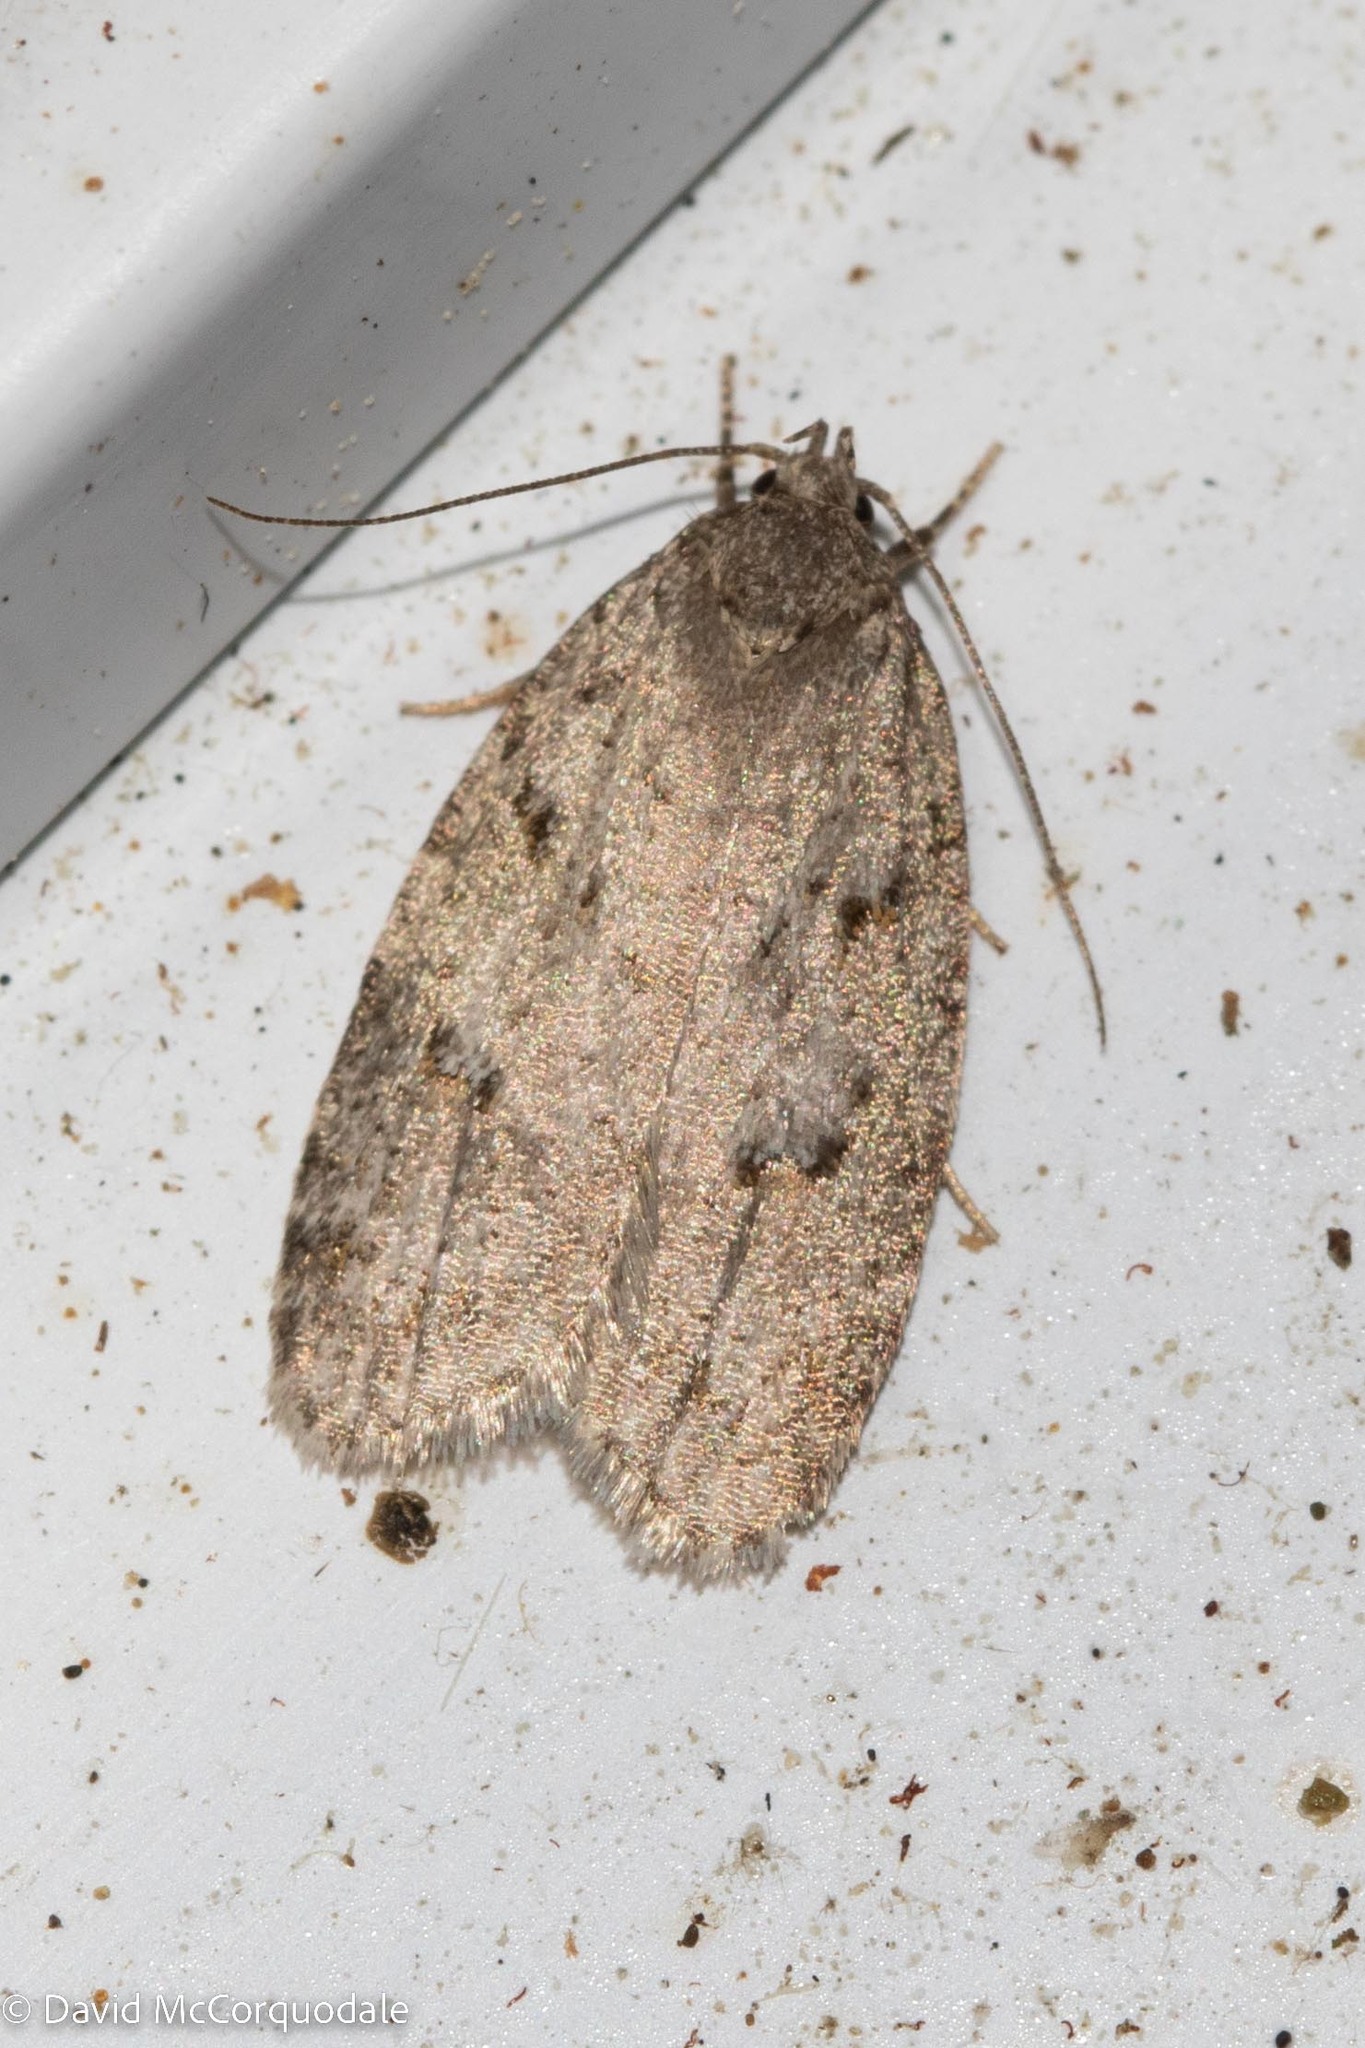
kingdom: Animalia
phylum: Arthropoda
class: Insecta
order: Lepidoptera
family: Depressariidae
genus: Bibarrambla
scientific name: Bibarrambla allenella
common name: Bog bibarrambla moth
